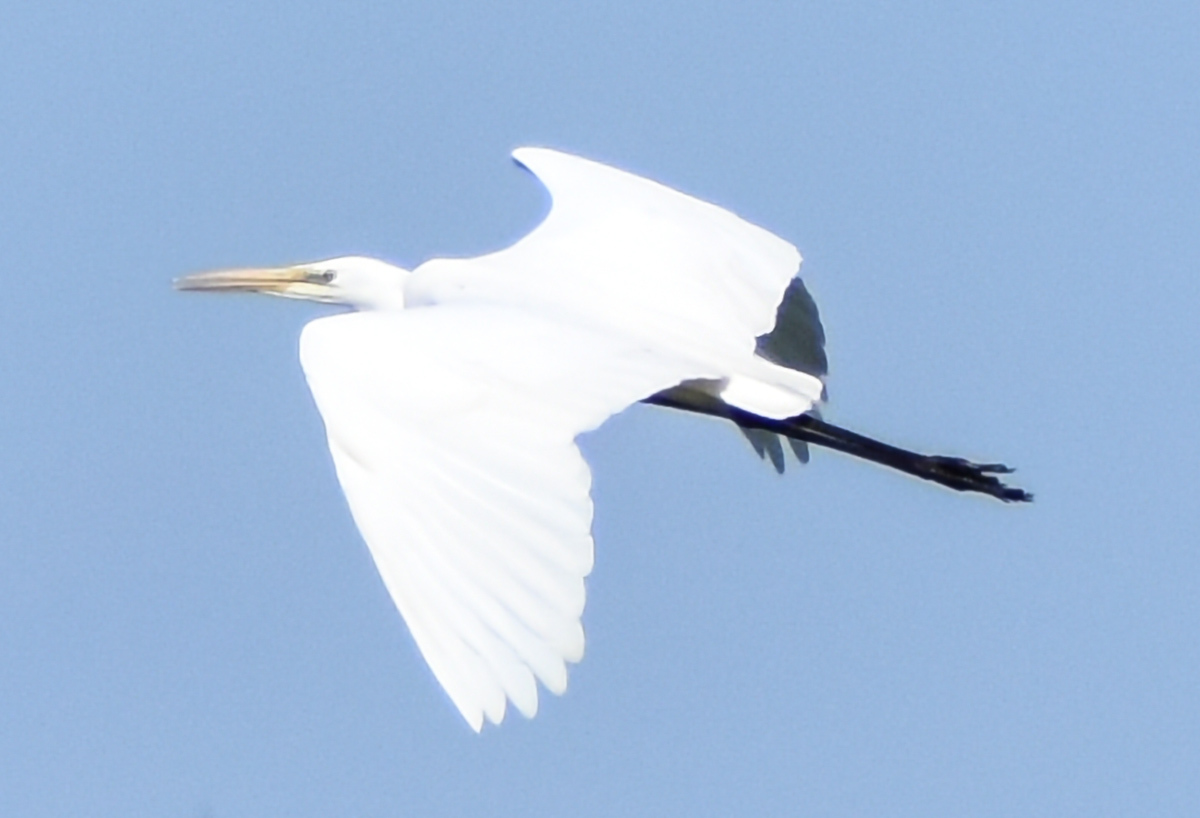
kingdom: Animalia
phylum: Chordata
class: Aves
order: Pelecaniformes
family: Ardeidae
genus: Ardea
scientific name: Ardea alba
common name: Great egret
